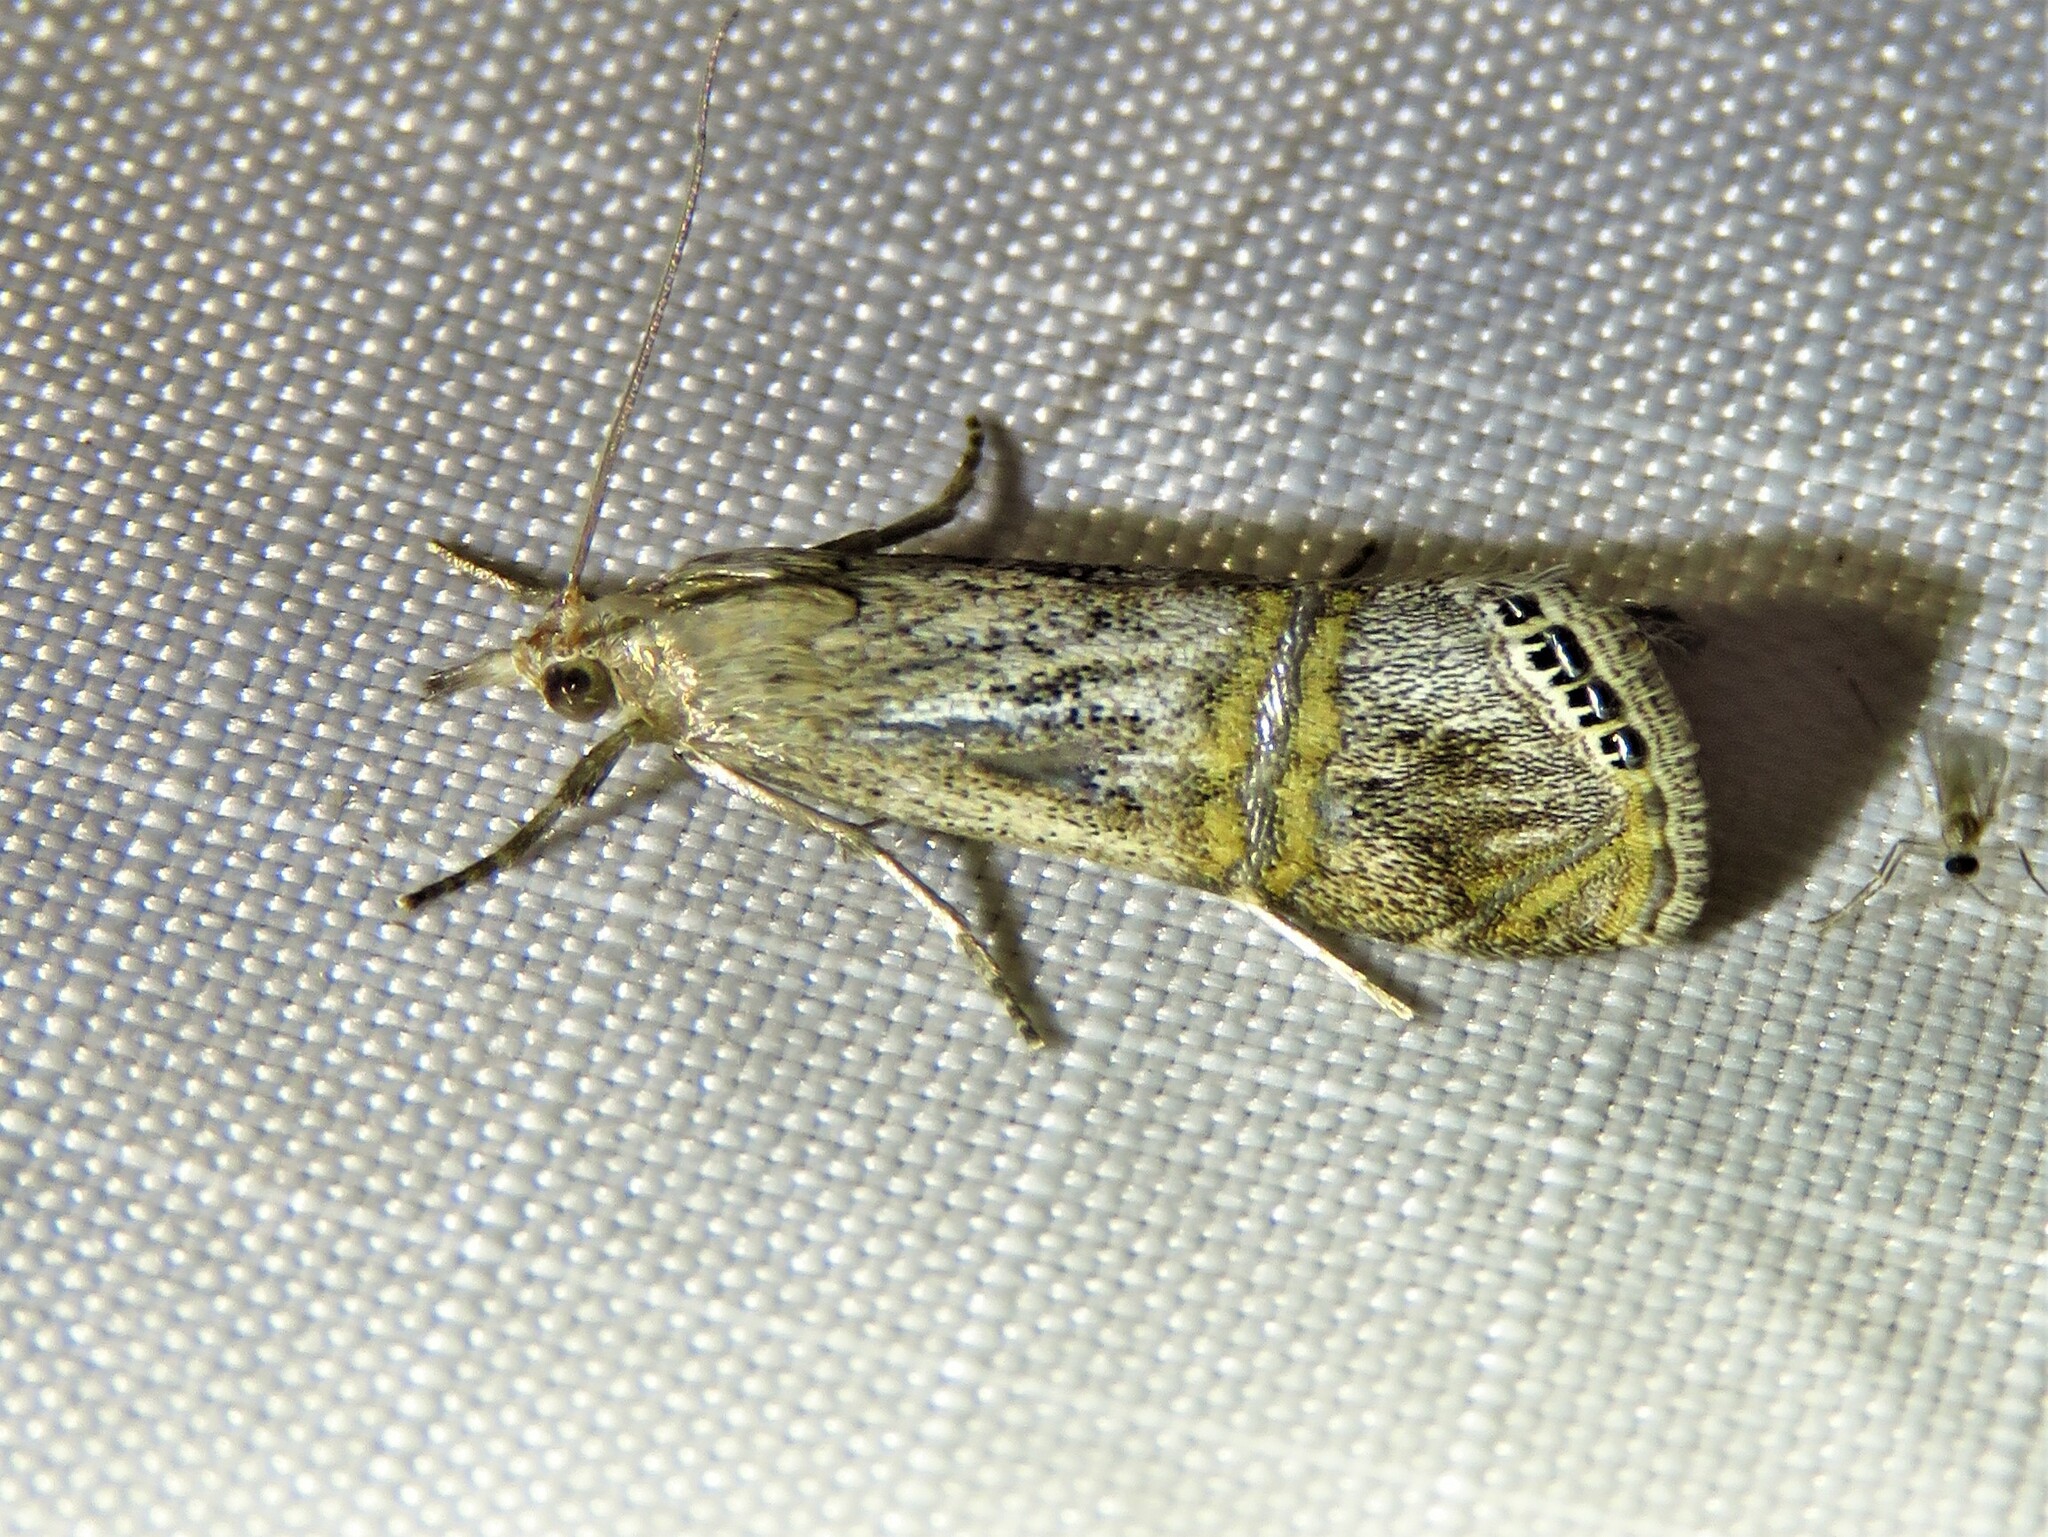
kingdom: Animalia
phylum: Arthropoda
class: Insecta
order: Lepidoptera
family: Crambidae
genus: Euchromius
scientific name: Euchromius ocellea
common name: Necklace veneer moth
